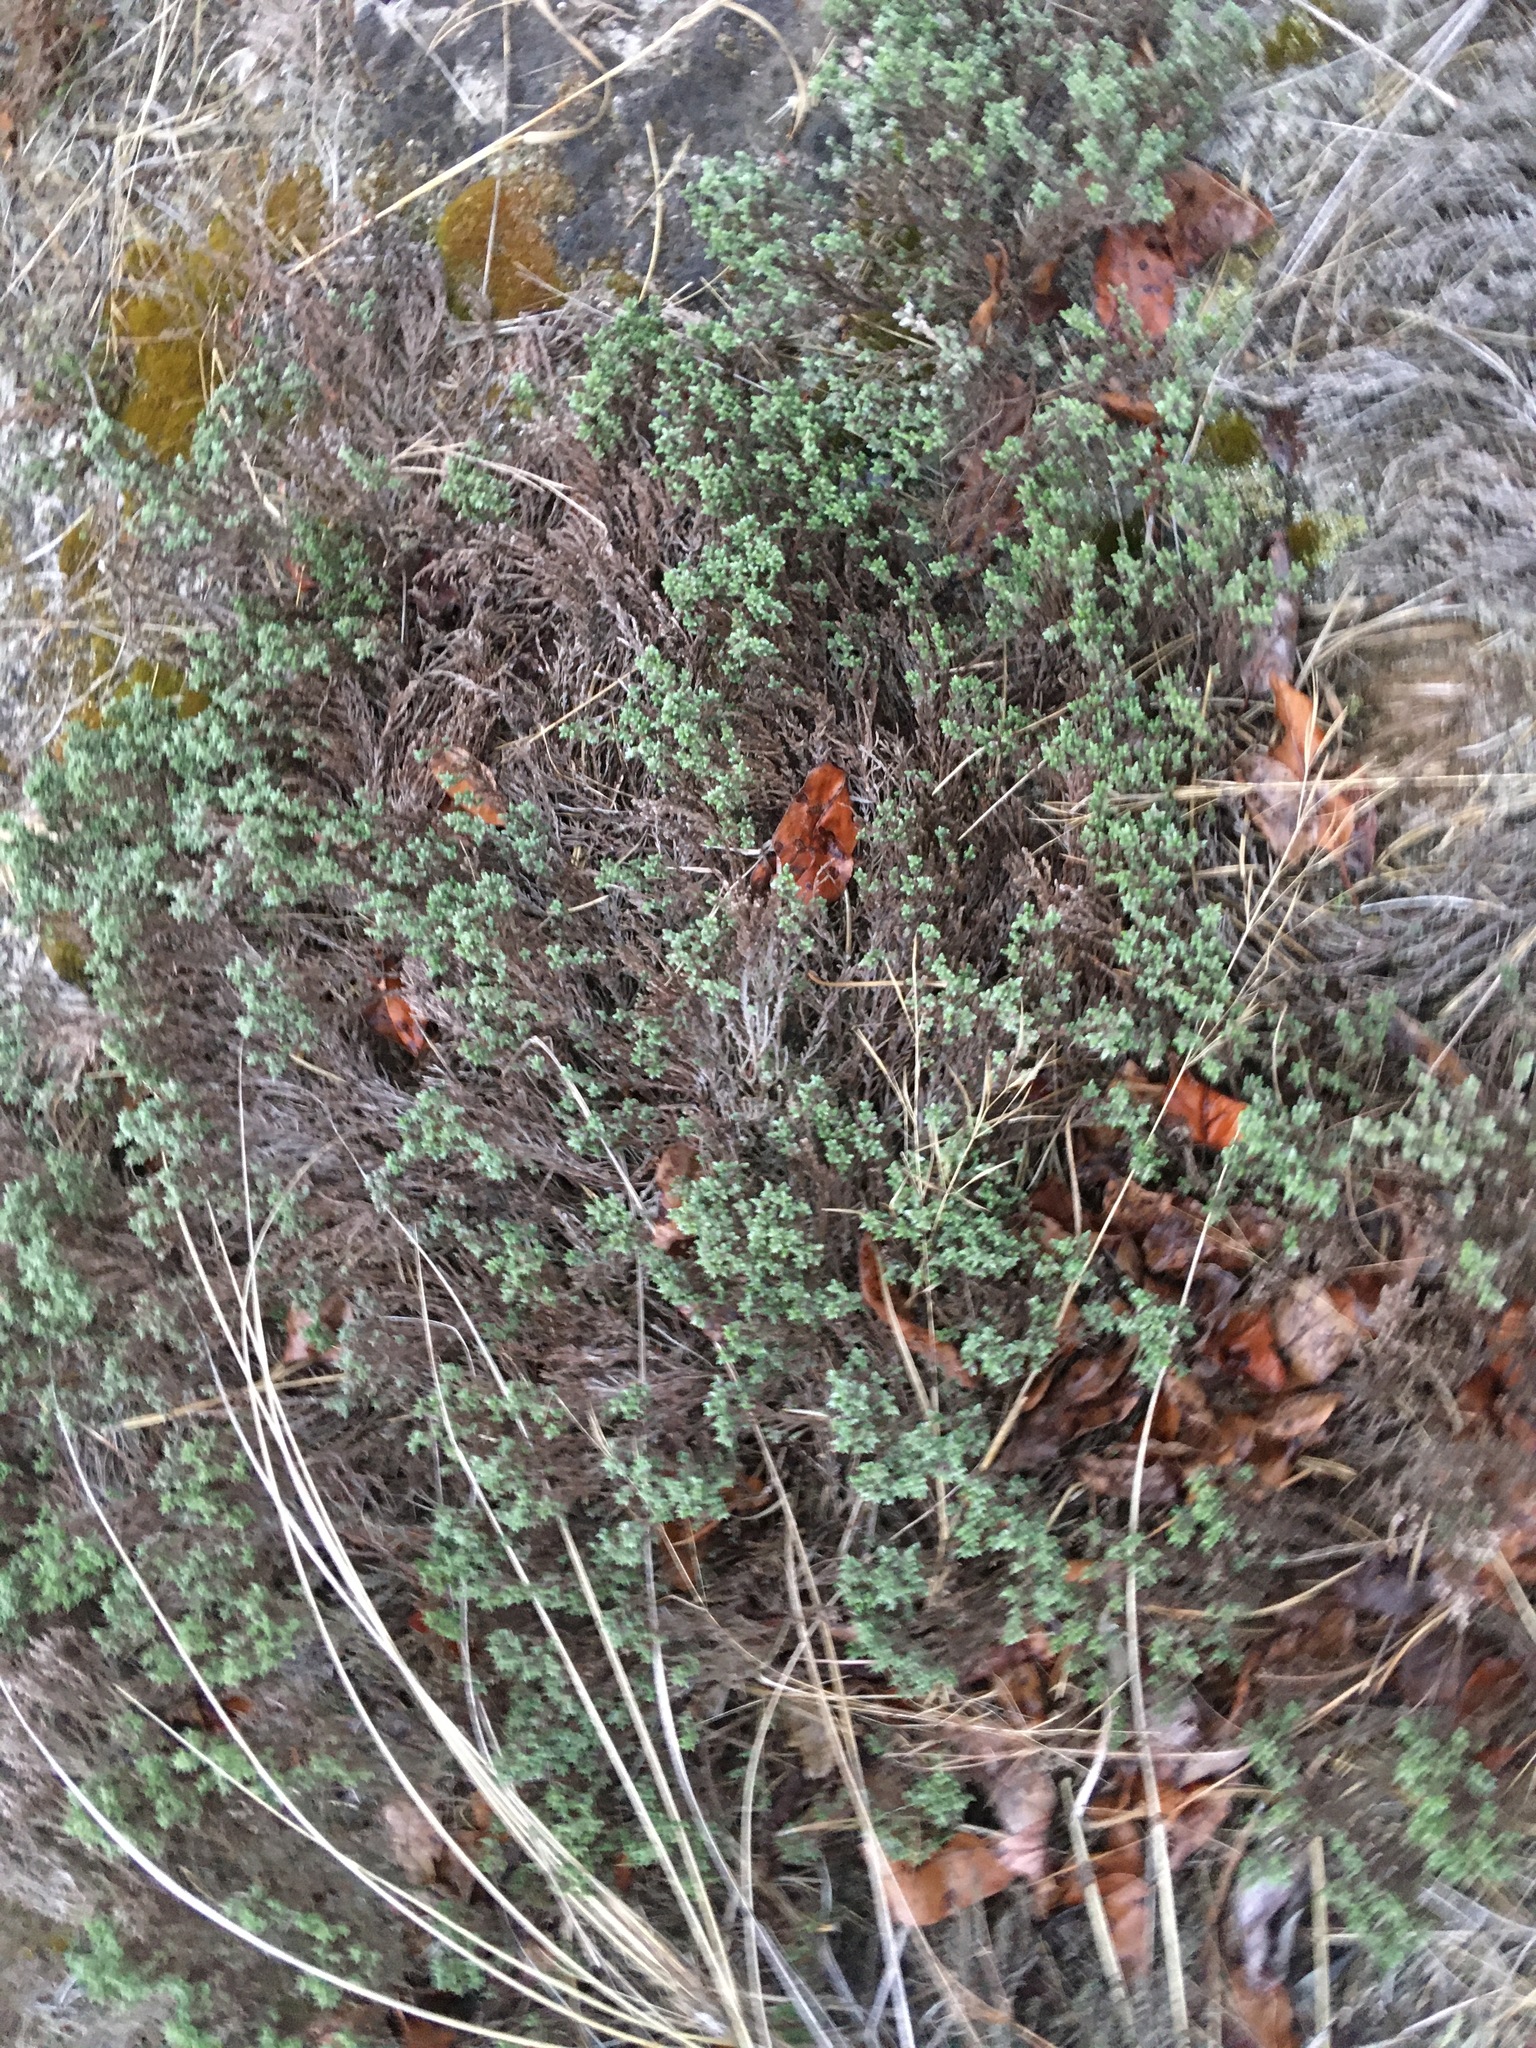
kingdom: Plantae
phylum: Tracheophyta
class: Magnoliopsida
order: Malvales
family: Cistaceae
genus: Hudsonia
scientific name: Hudsonia tomentosa
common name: Beach-heath
